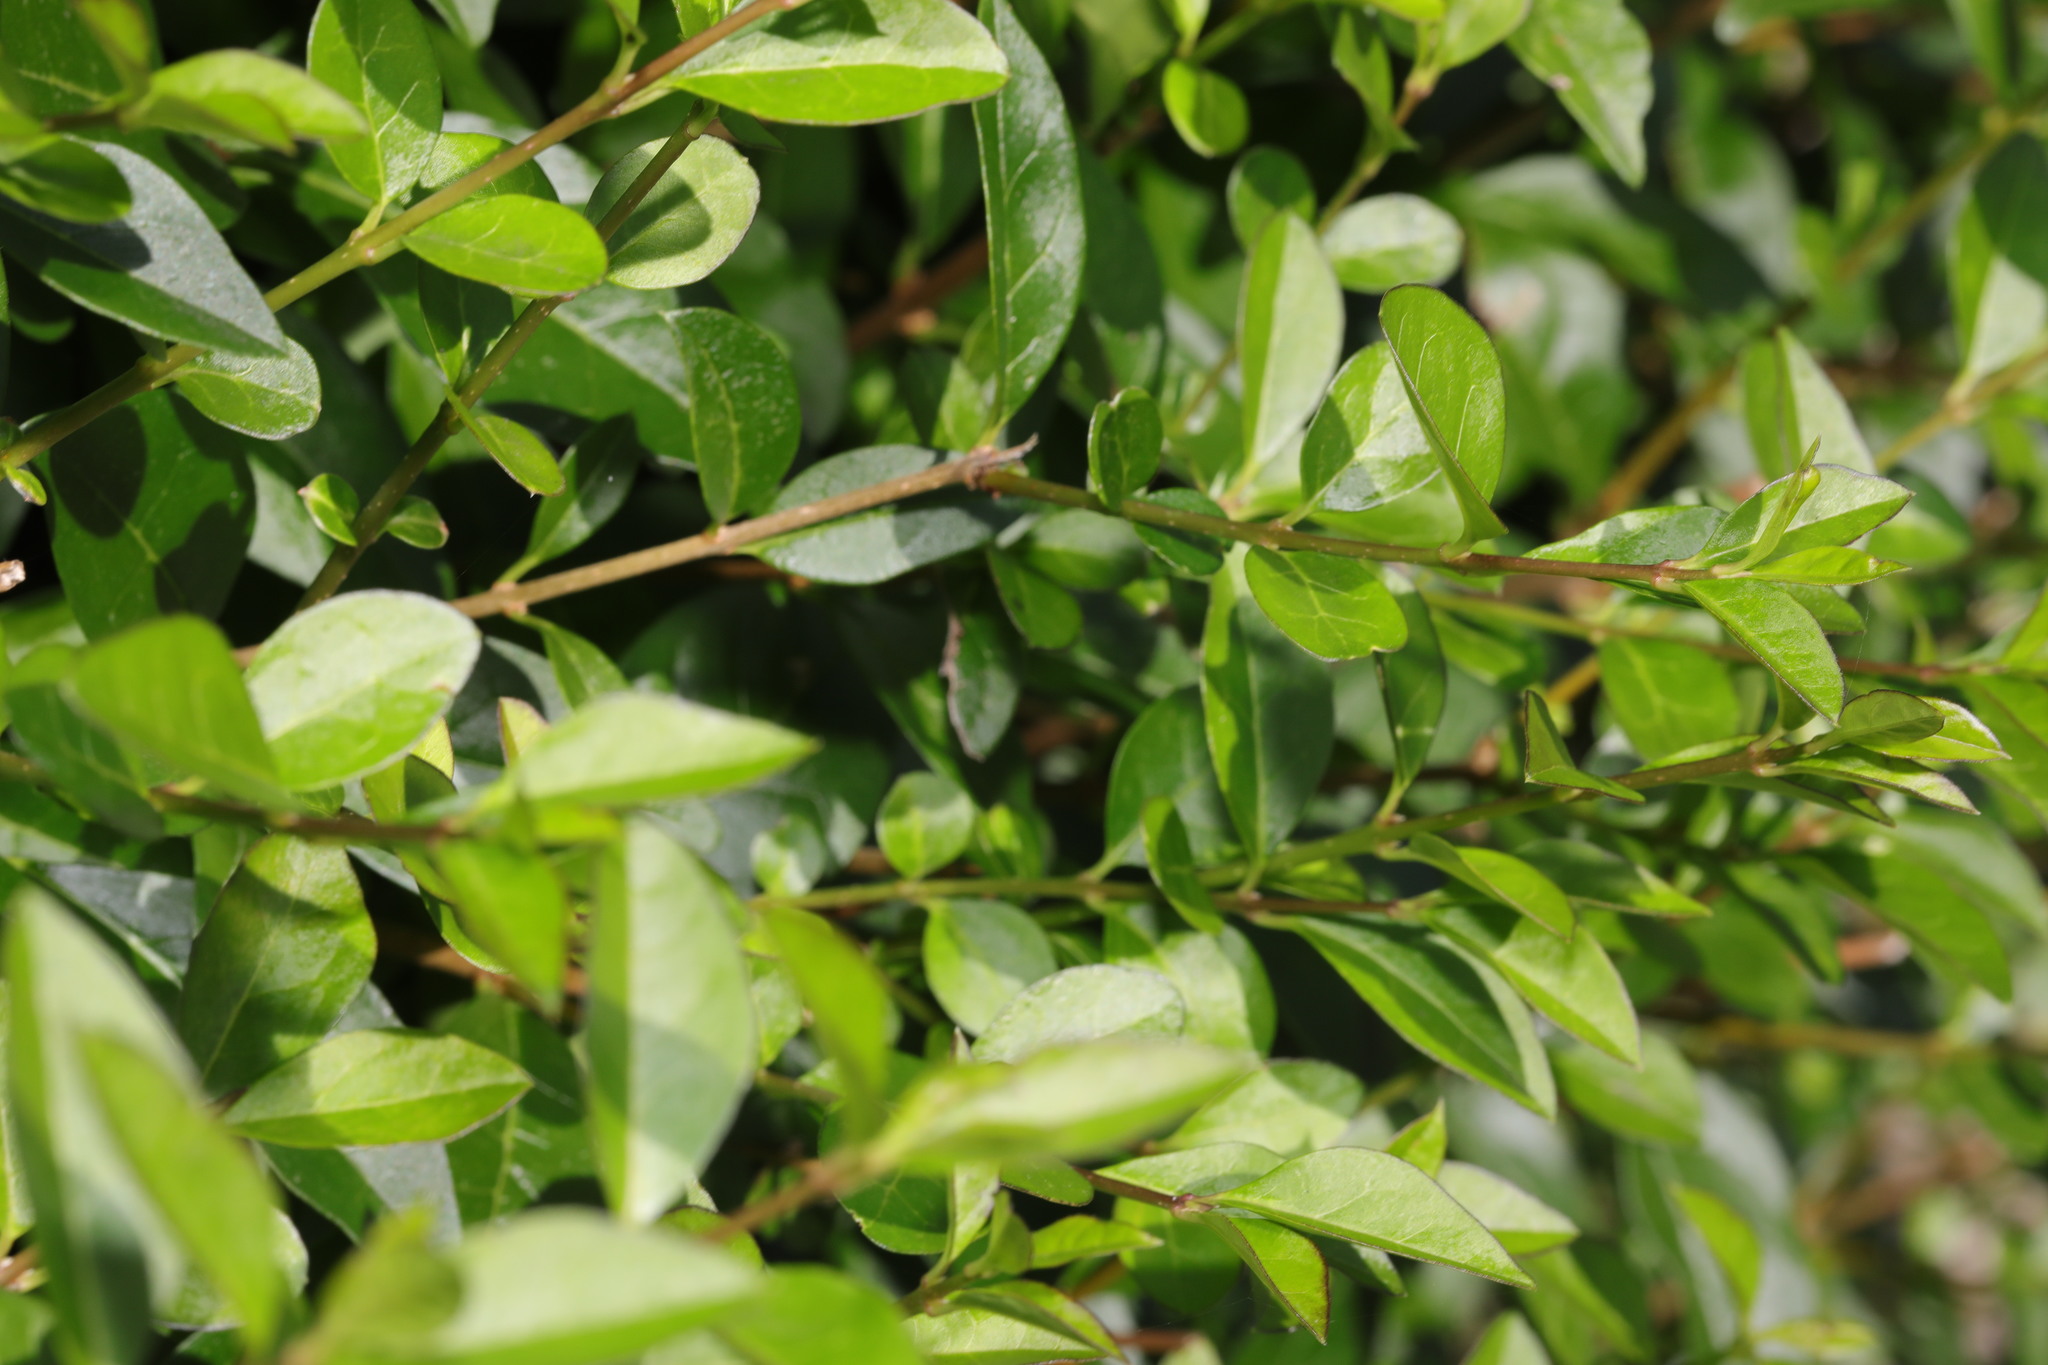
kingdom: Plantae
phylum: Tracheophyta
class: Magnoliopsida
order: Lamiales
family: Oleaceae
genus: Ligustrum
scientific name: Ligustrum ovalifolium
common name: California privet
